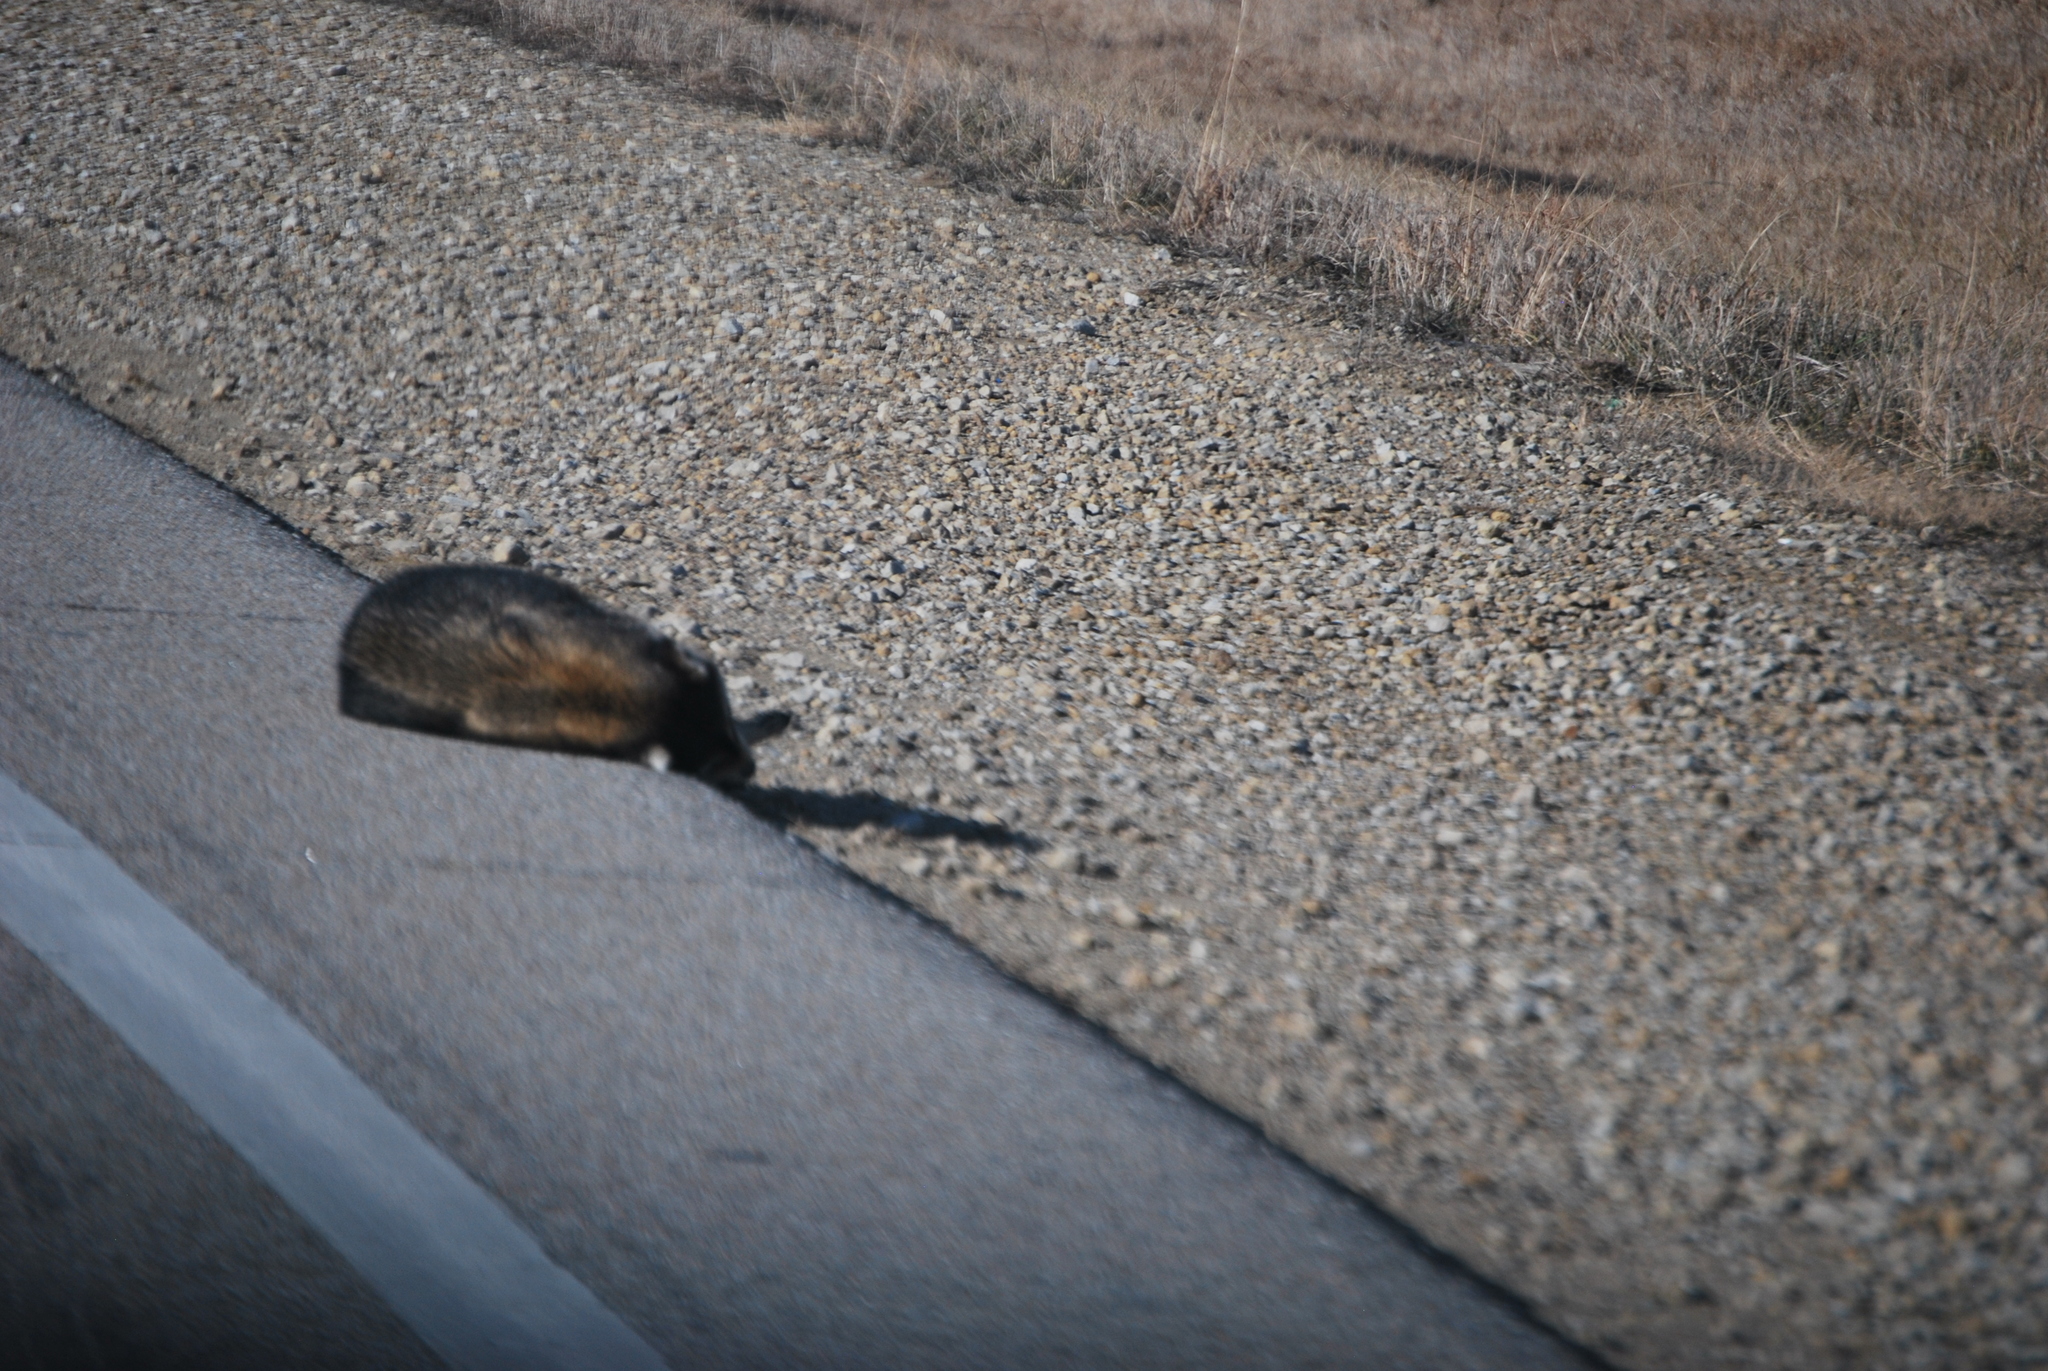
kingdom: Animalia
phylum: Chordata
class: Mammalia
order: Carnivora
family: Procyonidae
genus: Procyon
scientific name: Procyon lotor
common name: Raccoon
